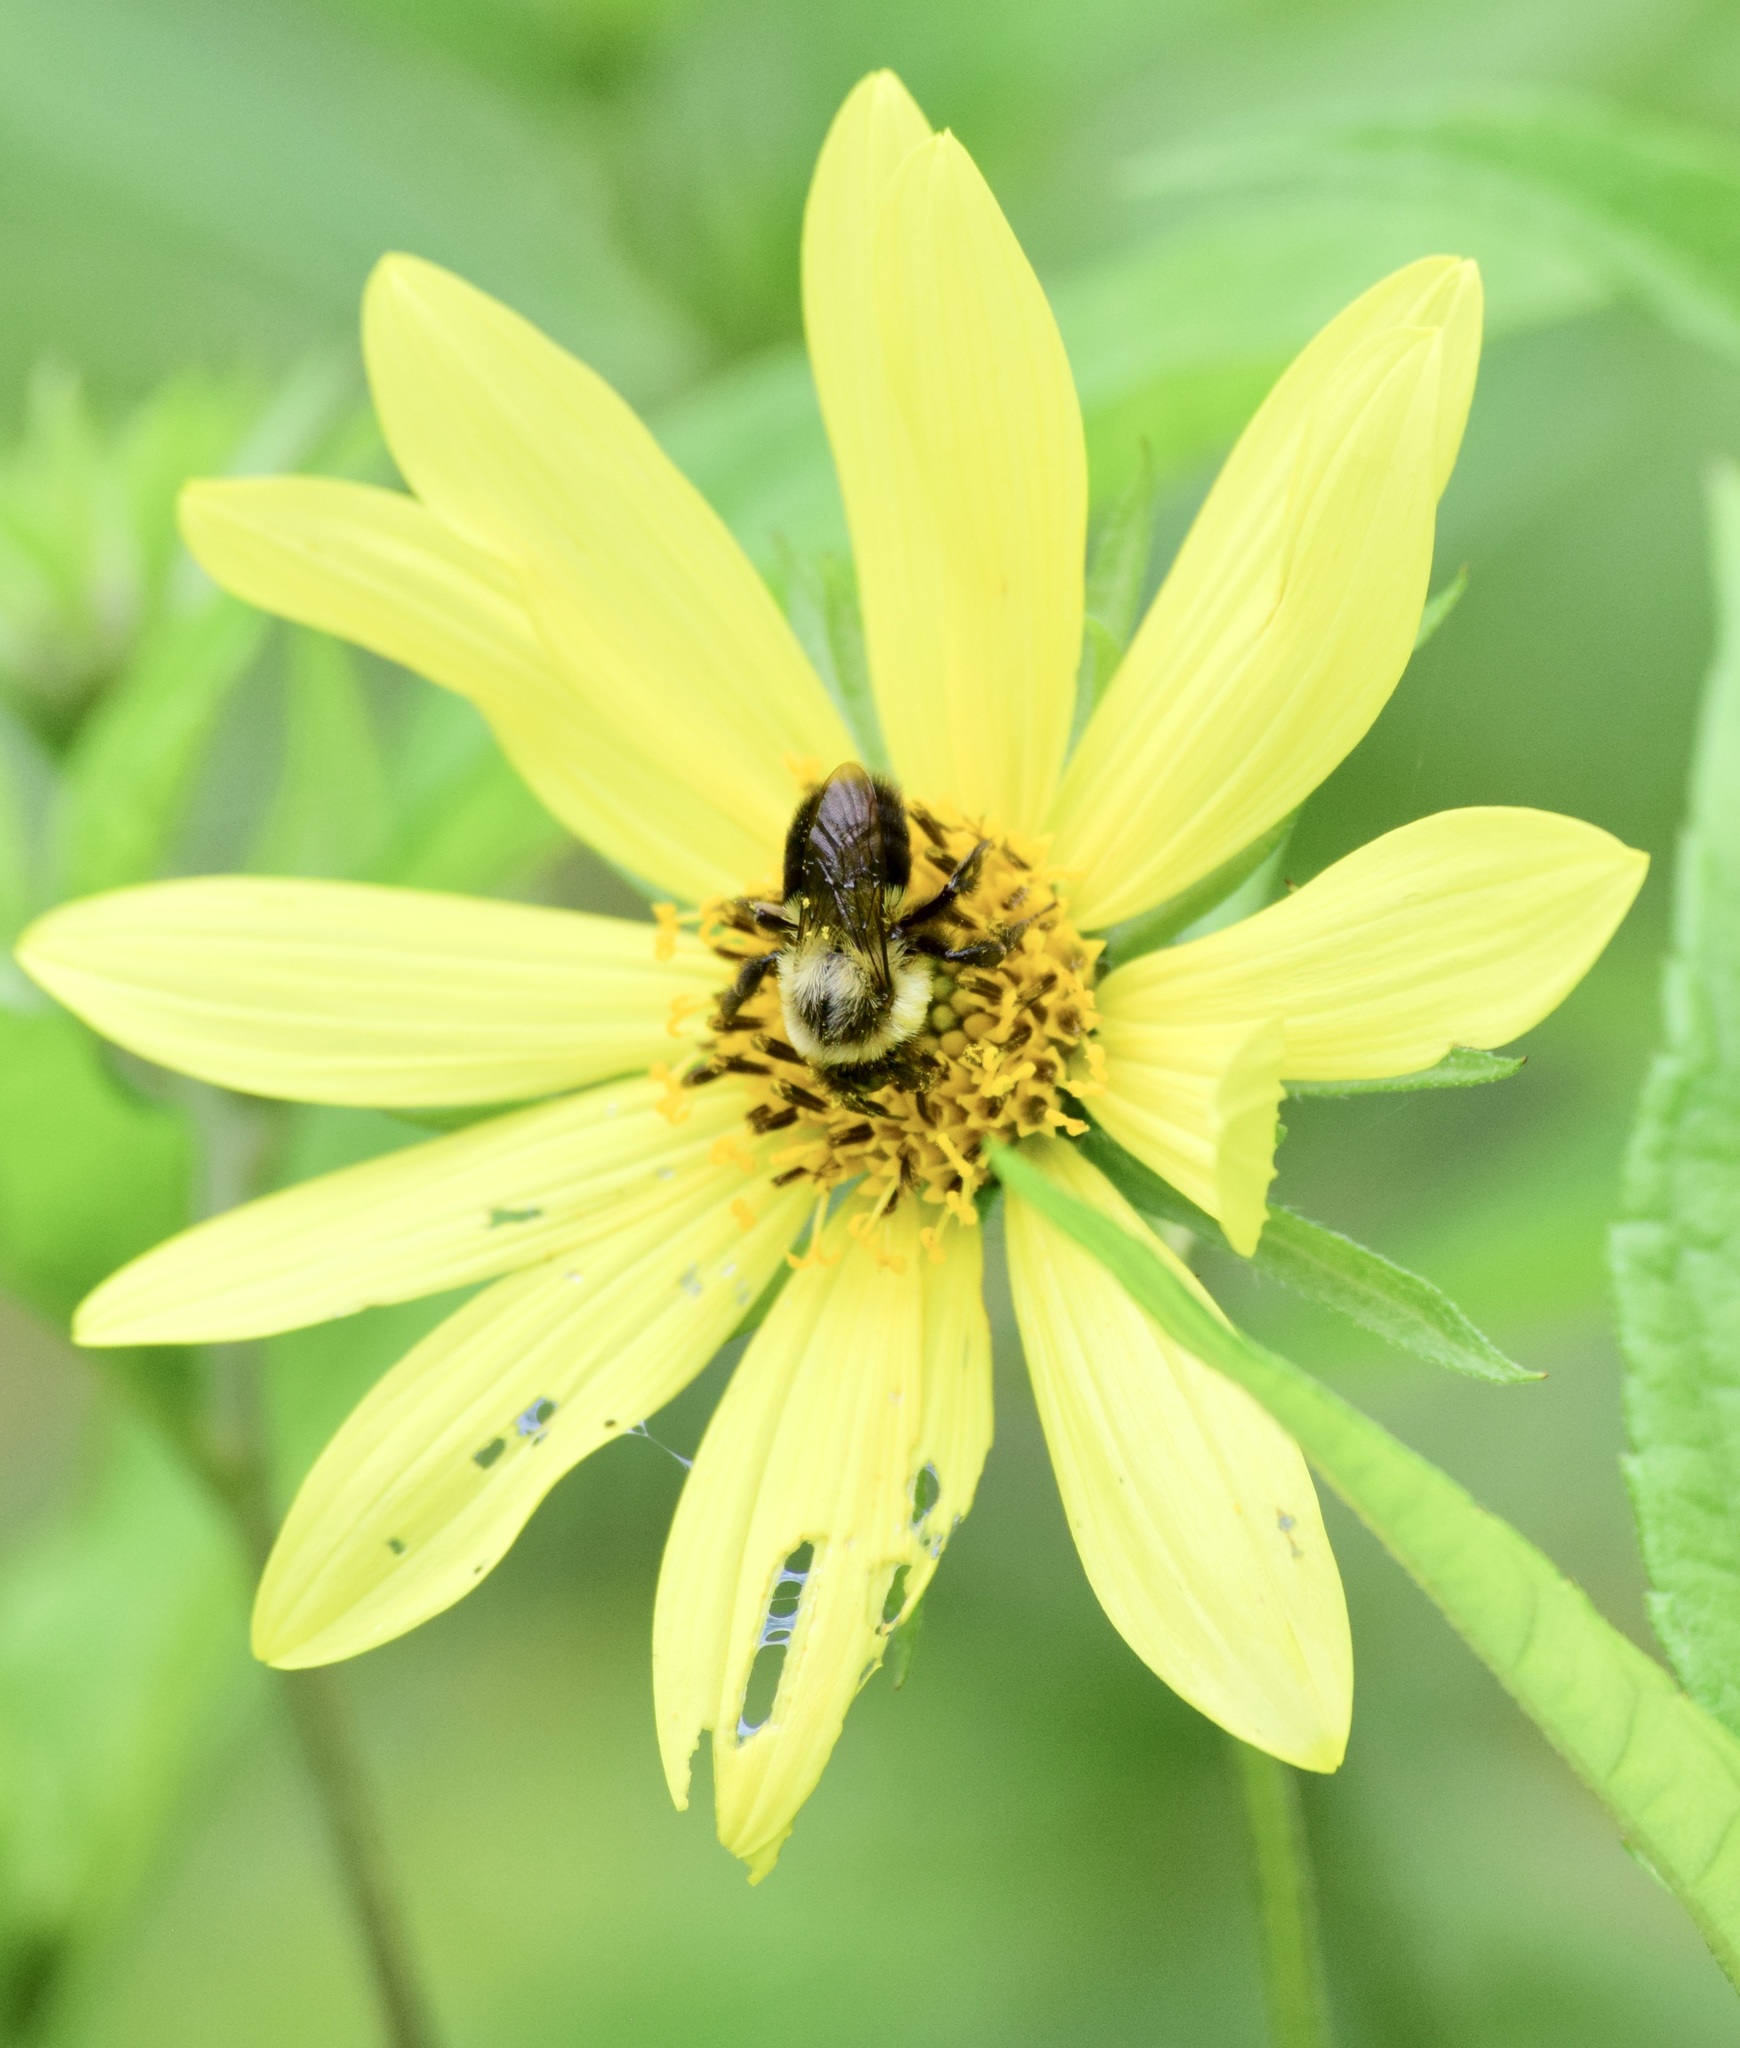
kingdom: Animalia
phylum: Arthropoda
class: Insecta
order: Hymenoptera
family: Apidae
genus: Bombus
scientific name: Bombus impatiens
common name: Common eastern bumble bee
